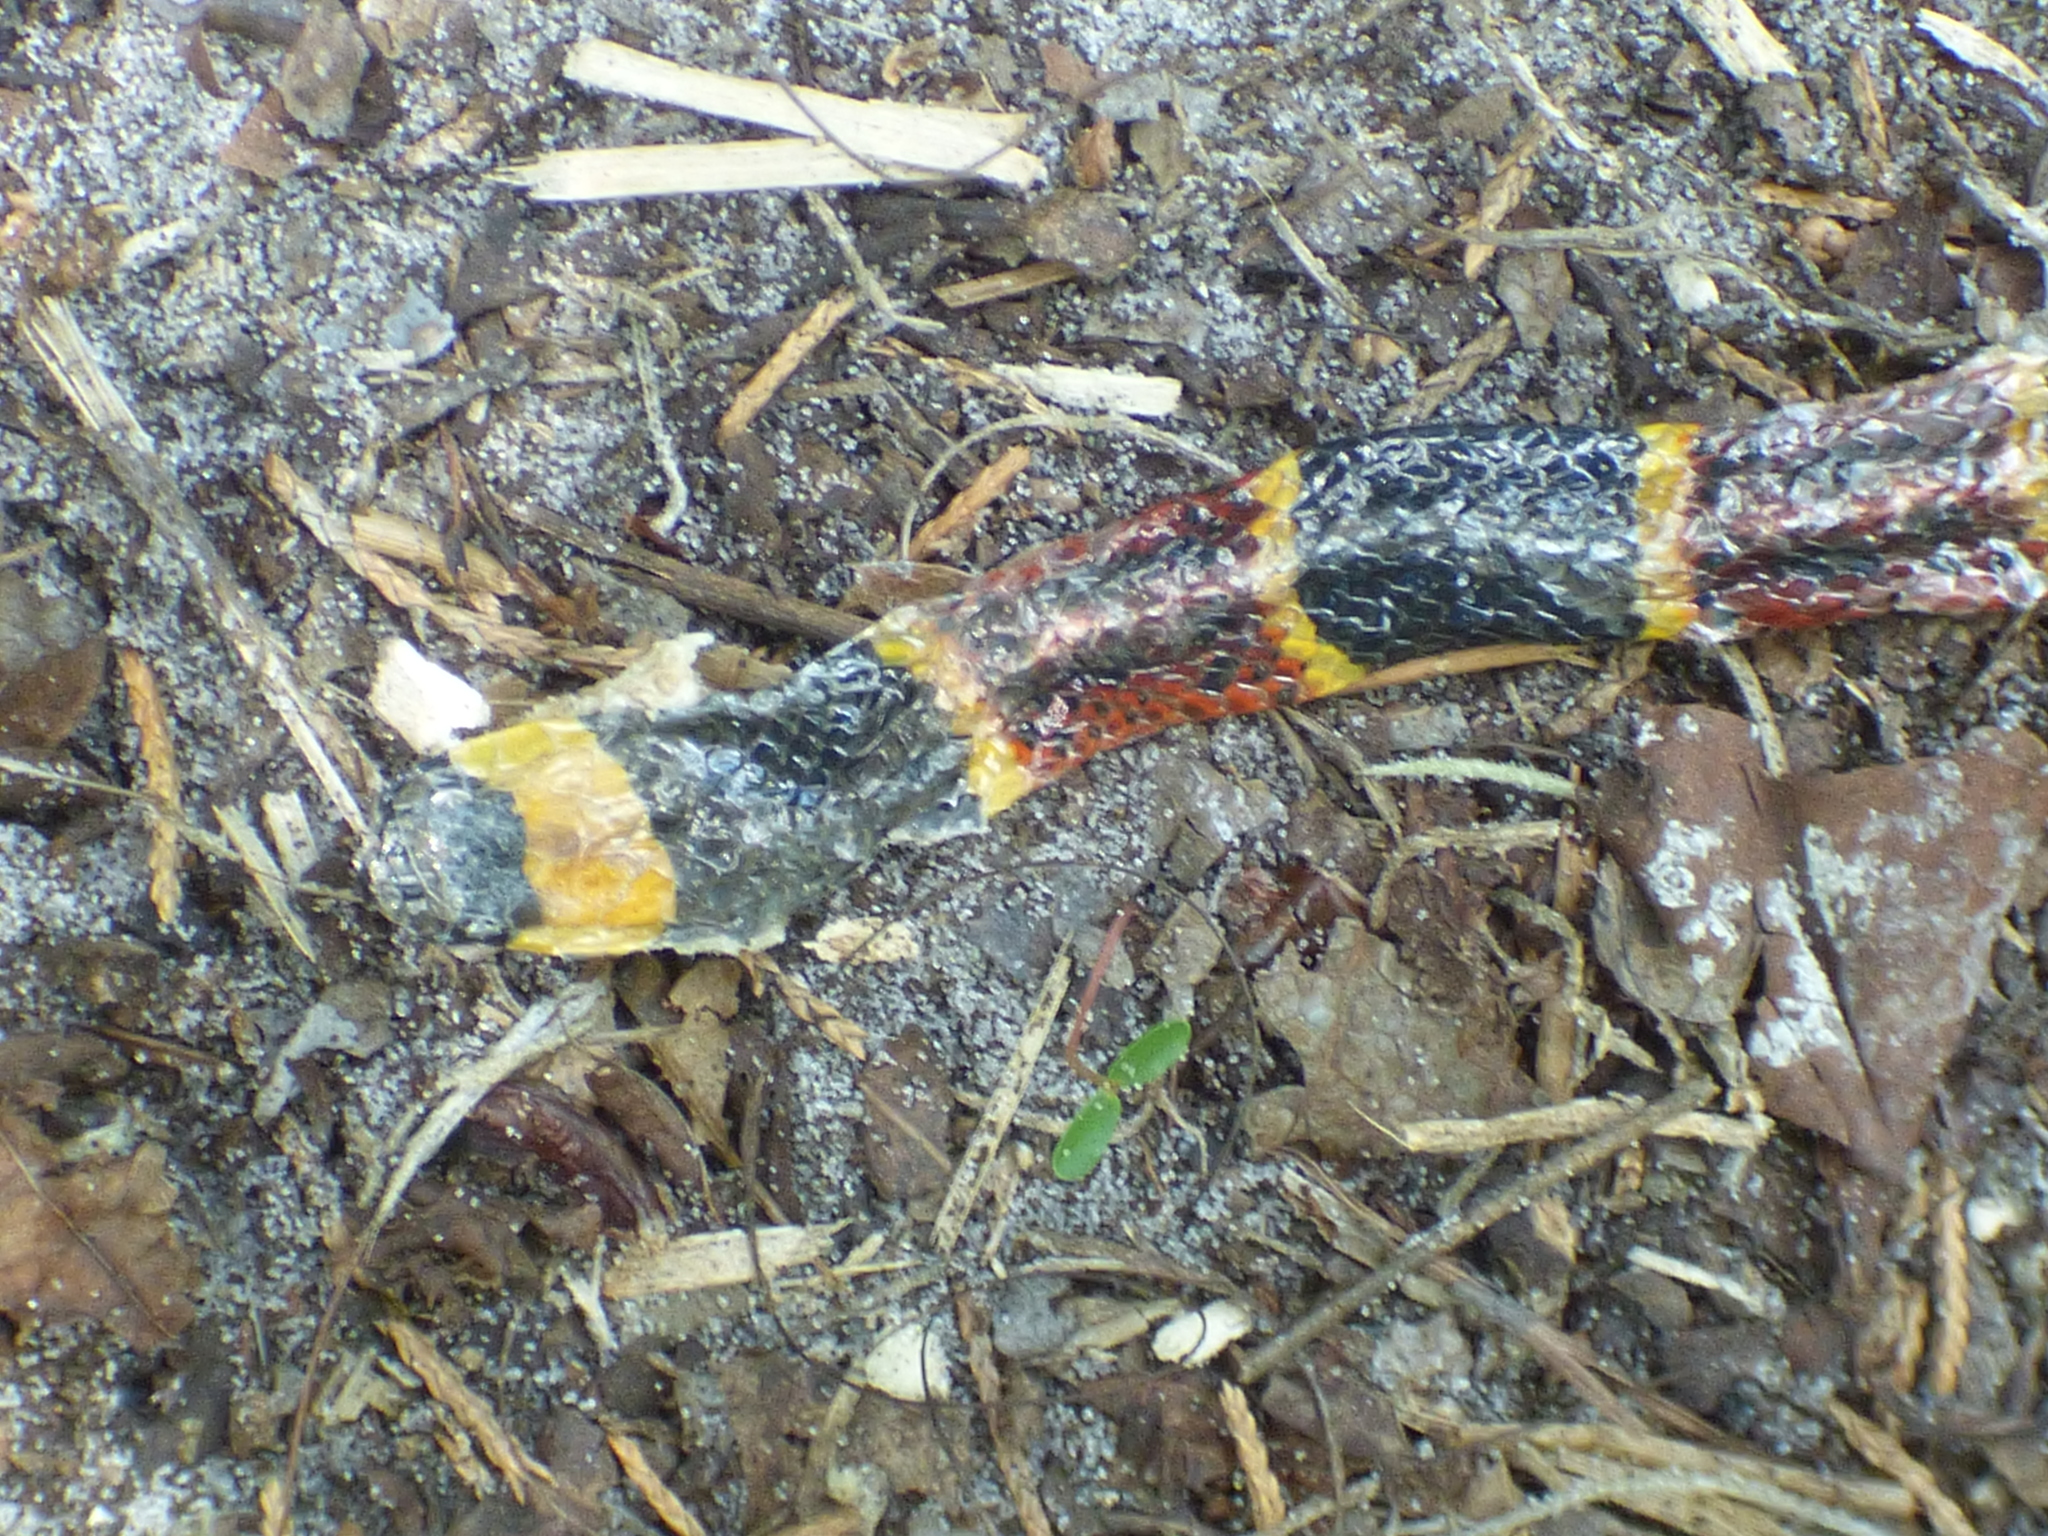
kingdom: Animalia
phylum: Chordata
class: Squamata
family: Elapidae
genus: Micrurus
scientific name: Micrurus fulvius
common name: Eastern coral snake
